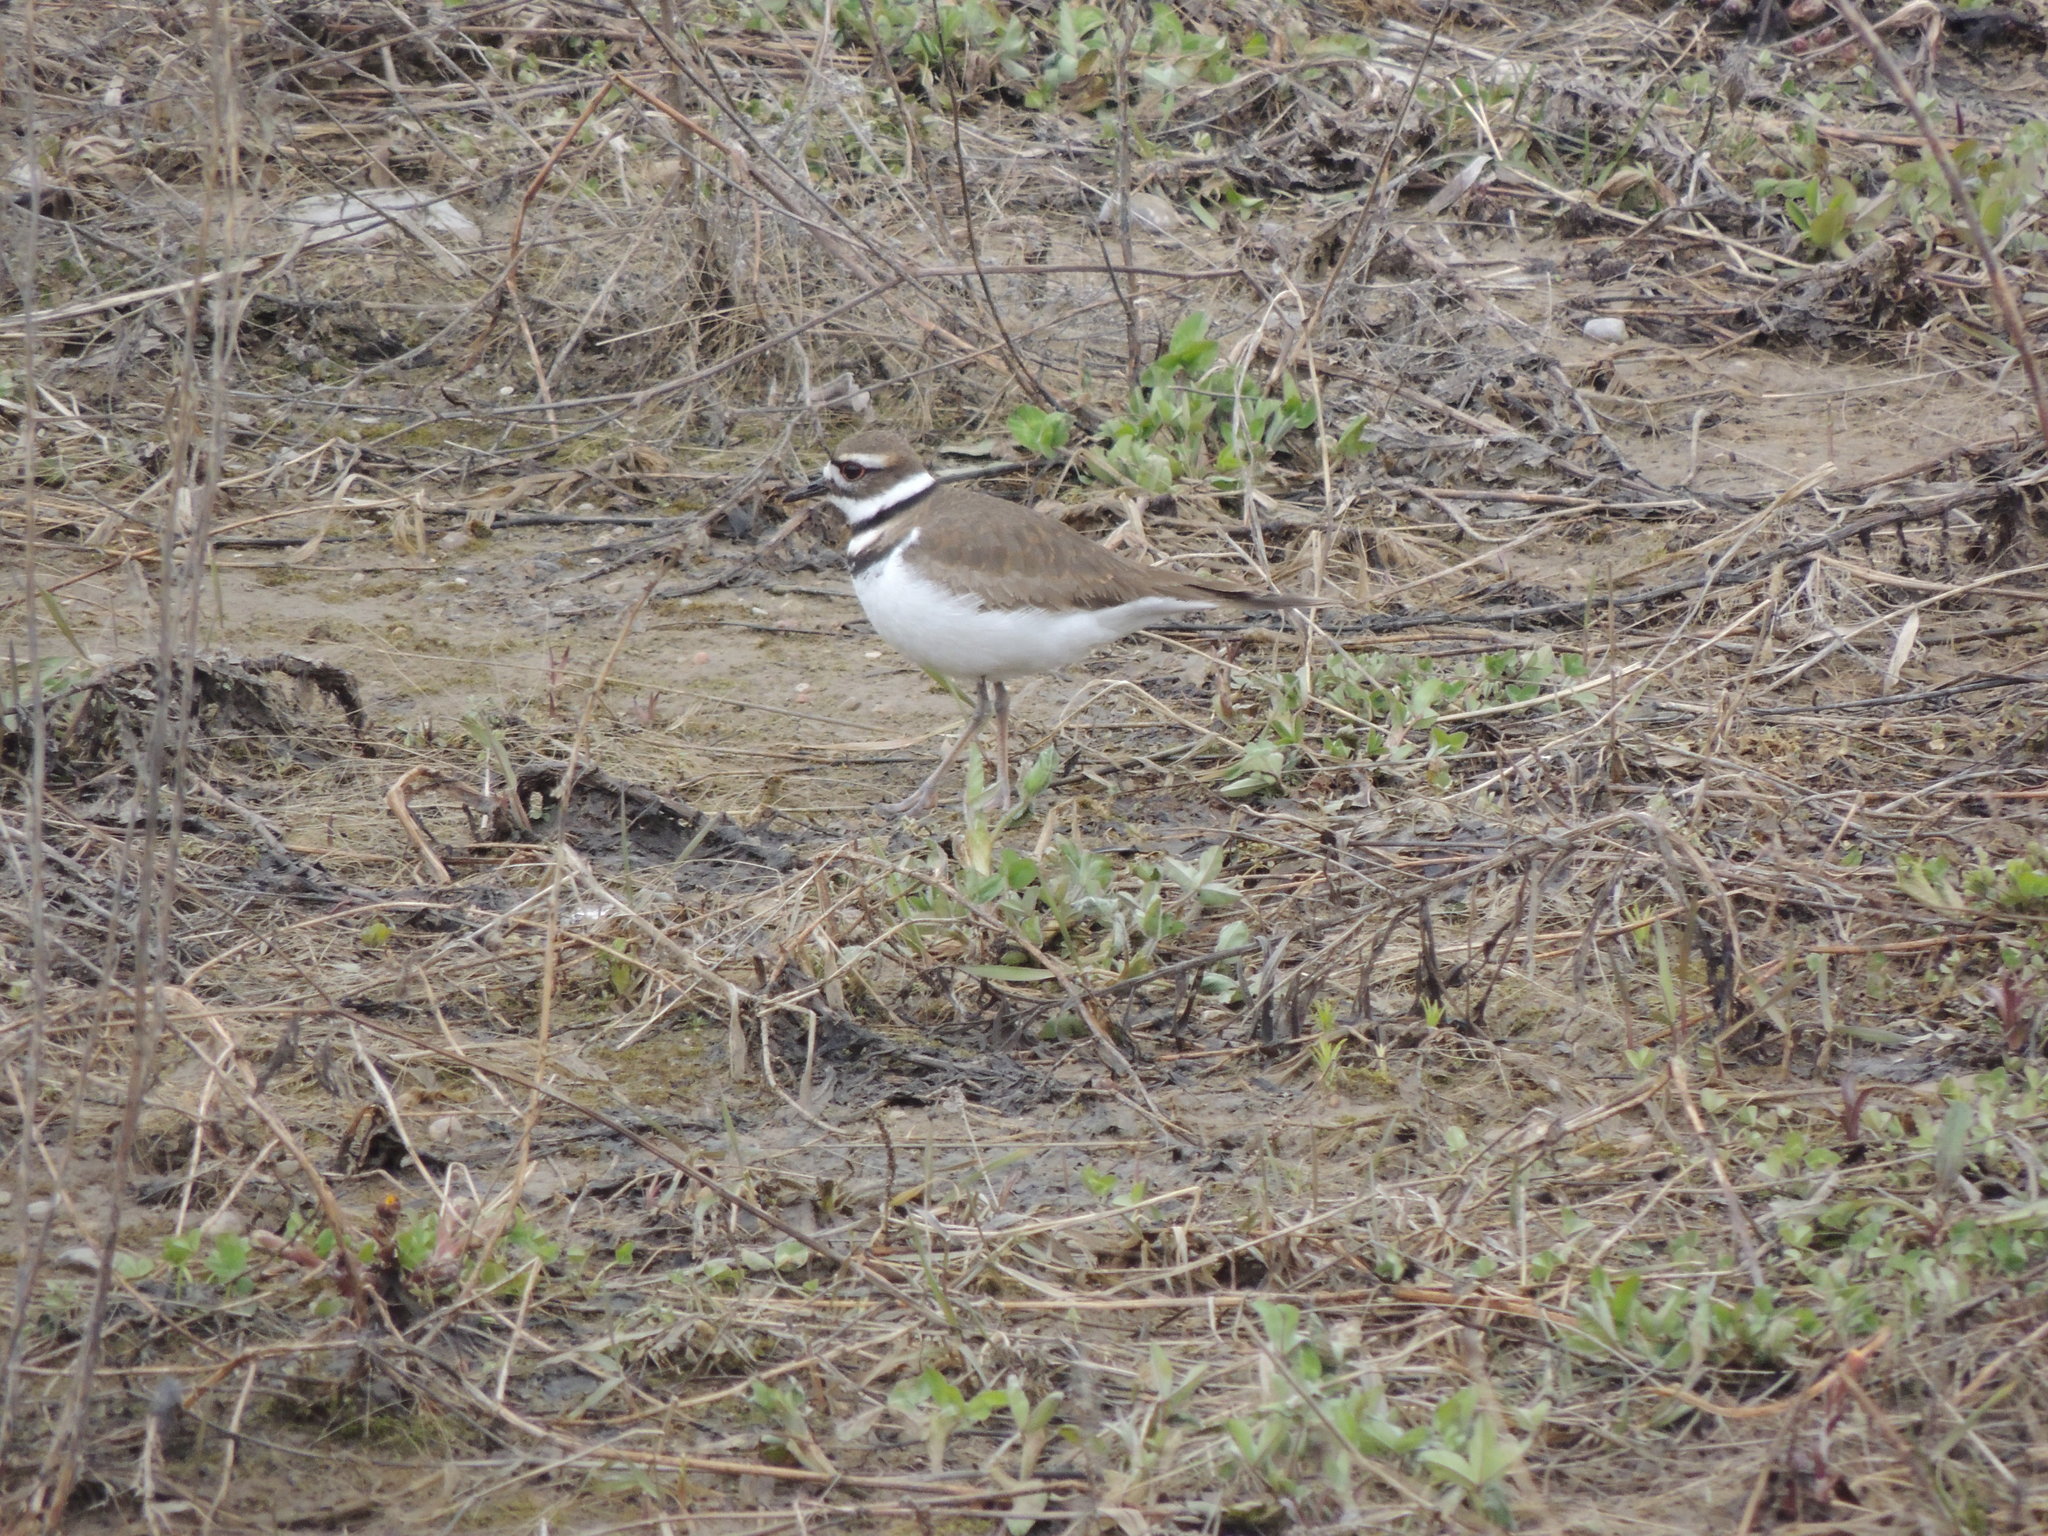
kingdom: Animalia
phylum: Chordata
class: Aves
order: Charadriiformes
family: Charadriidae
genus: Charadrius
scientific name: Charadrius vociferus
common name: Killdeer
